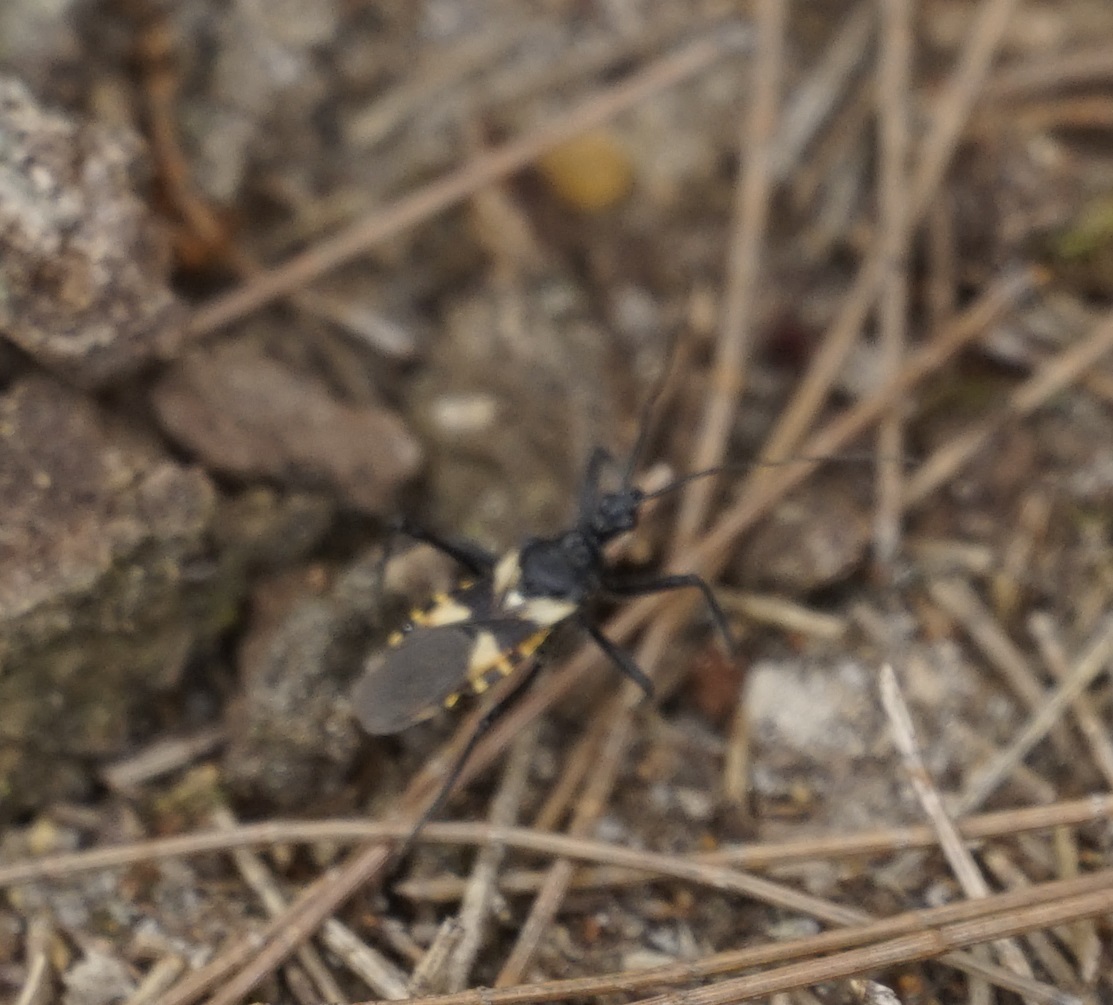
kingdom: Animalia
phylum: Arthropoda
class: Insecta
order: Hemiptera
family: Reduviidae
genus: Catasphactes
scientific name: Catasphactes coprias
